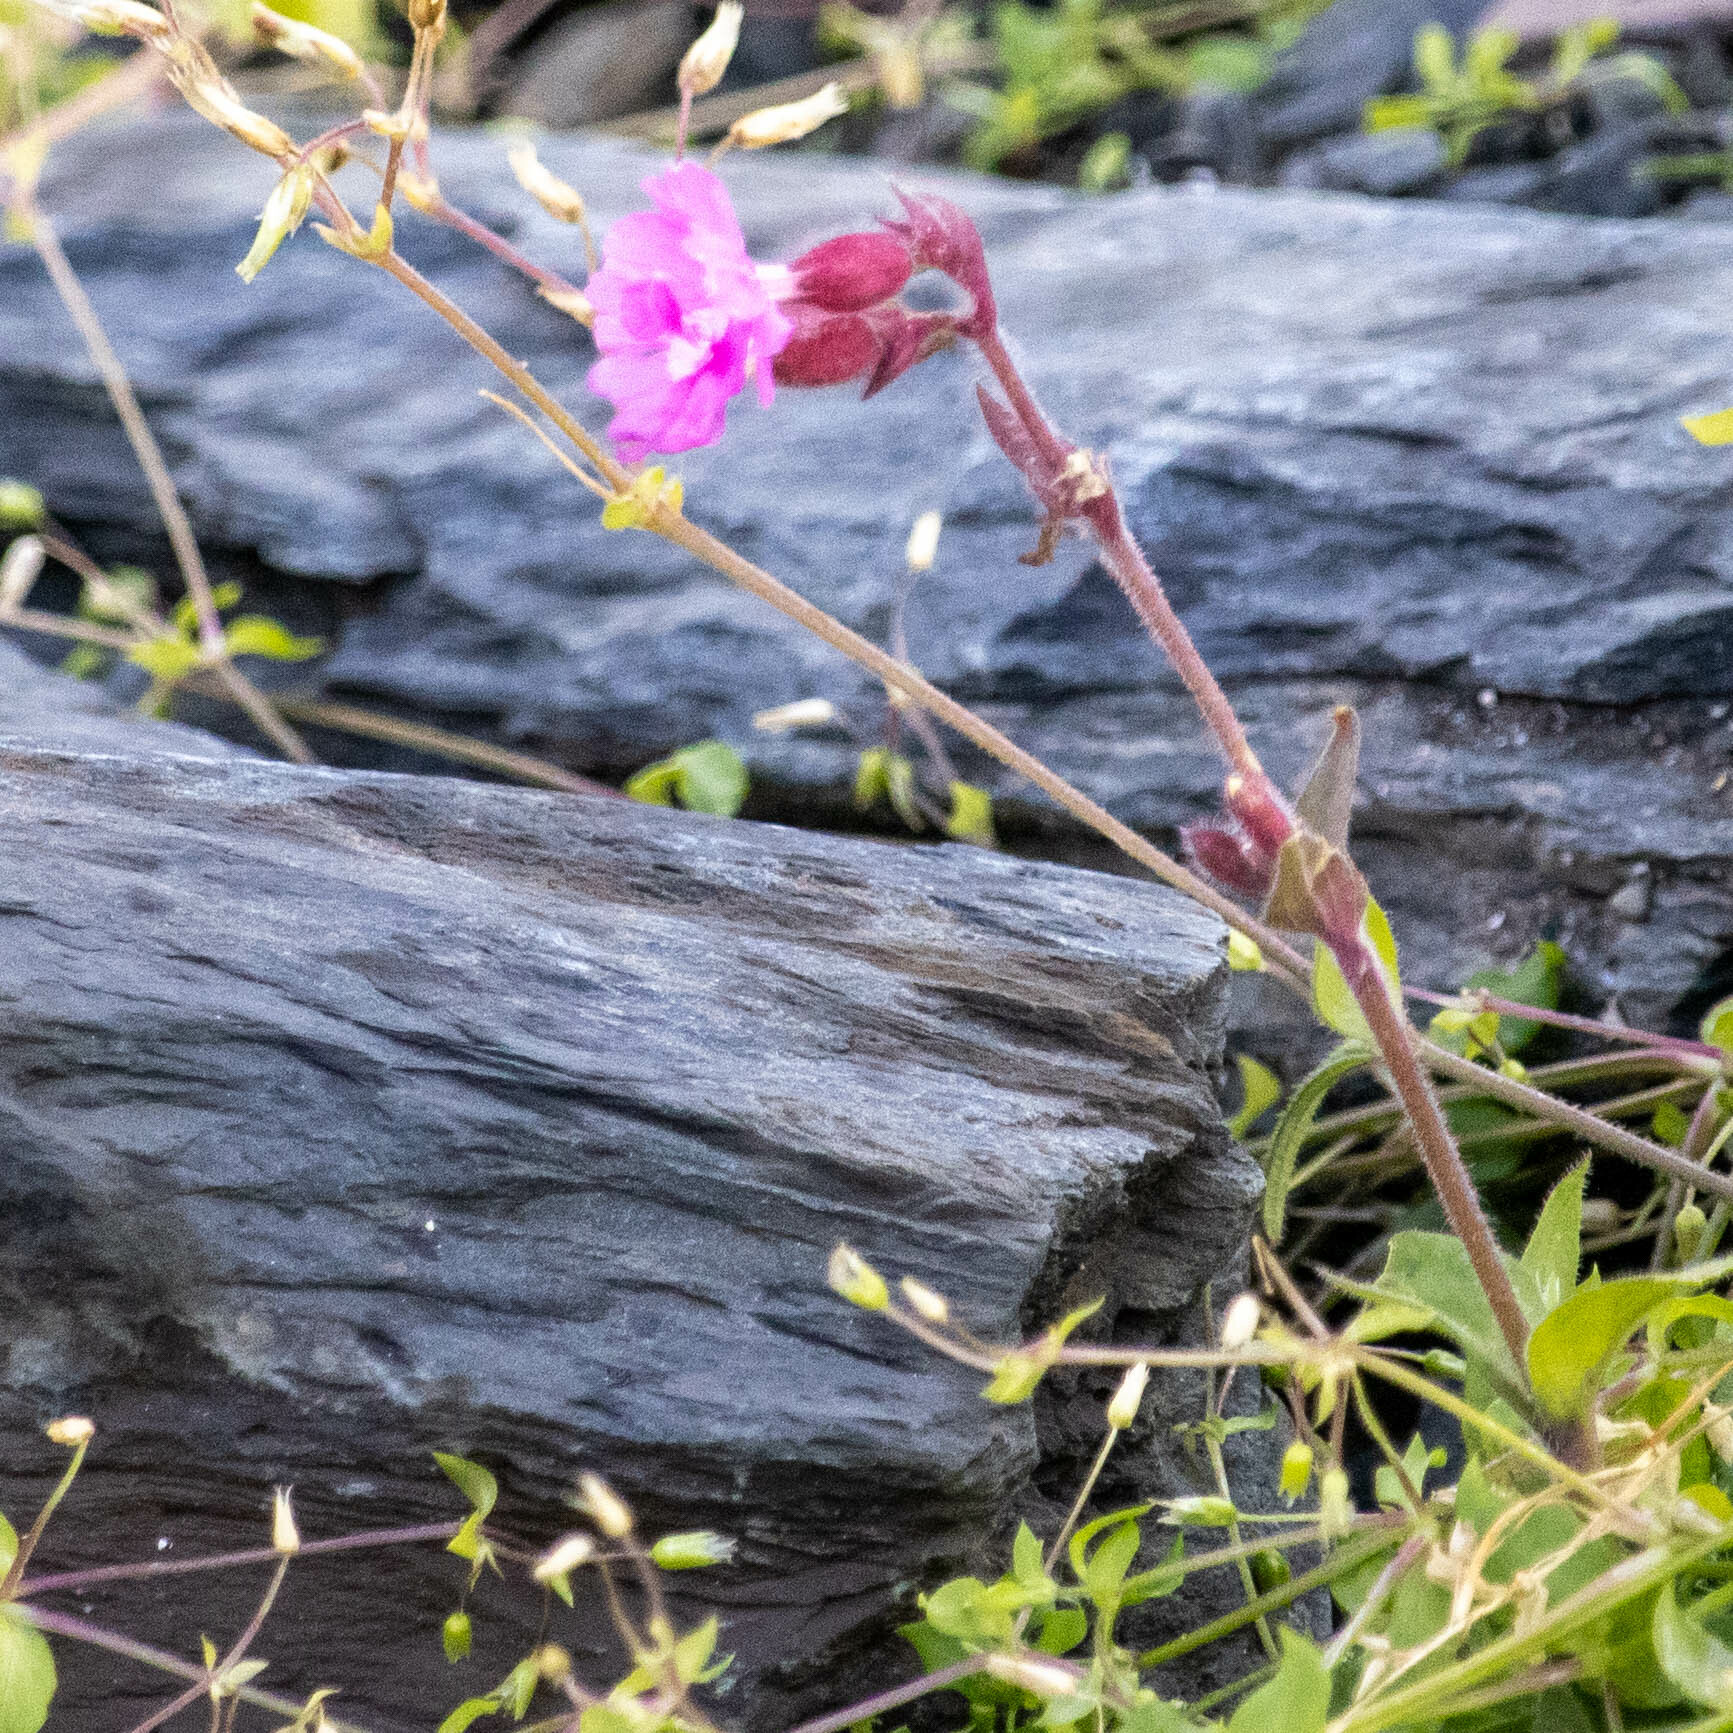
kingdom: Plantae
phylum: Tracheophyta
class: Magnoliopsida
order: Caryophyllales
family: Caryophyllaceae
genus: Silene
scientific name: Silene dioica
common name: Red campion
